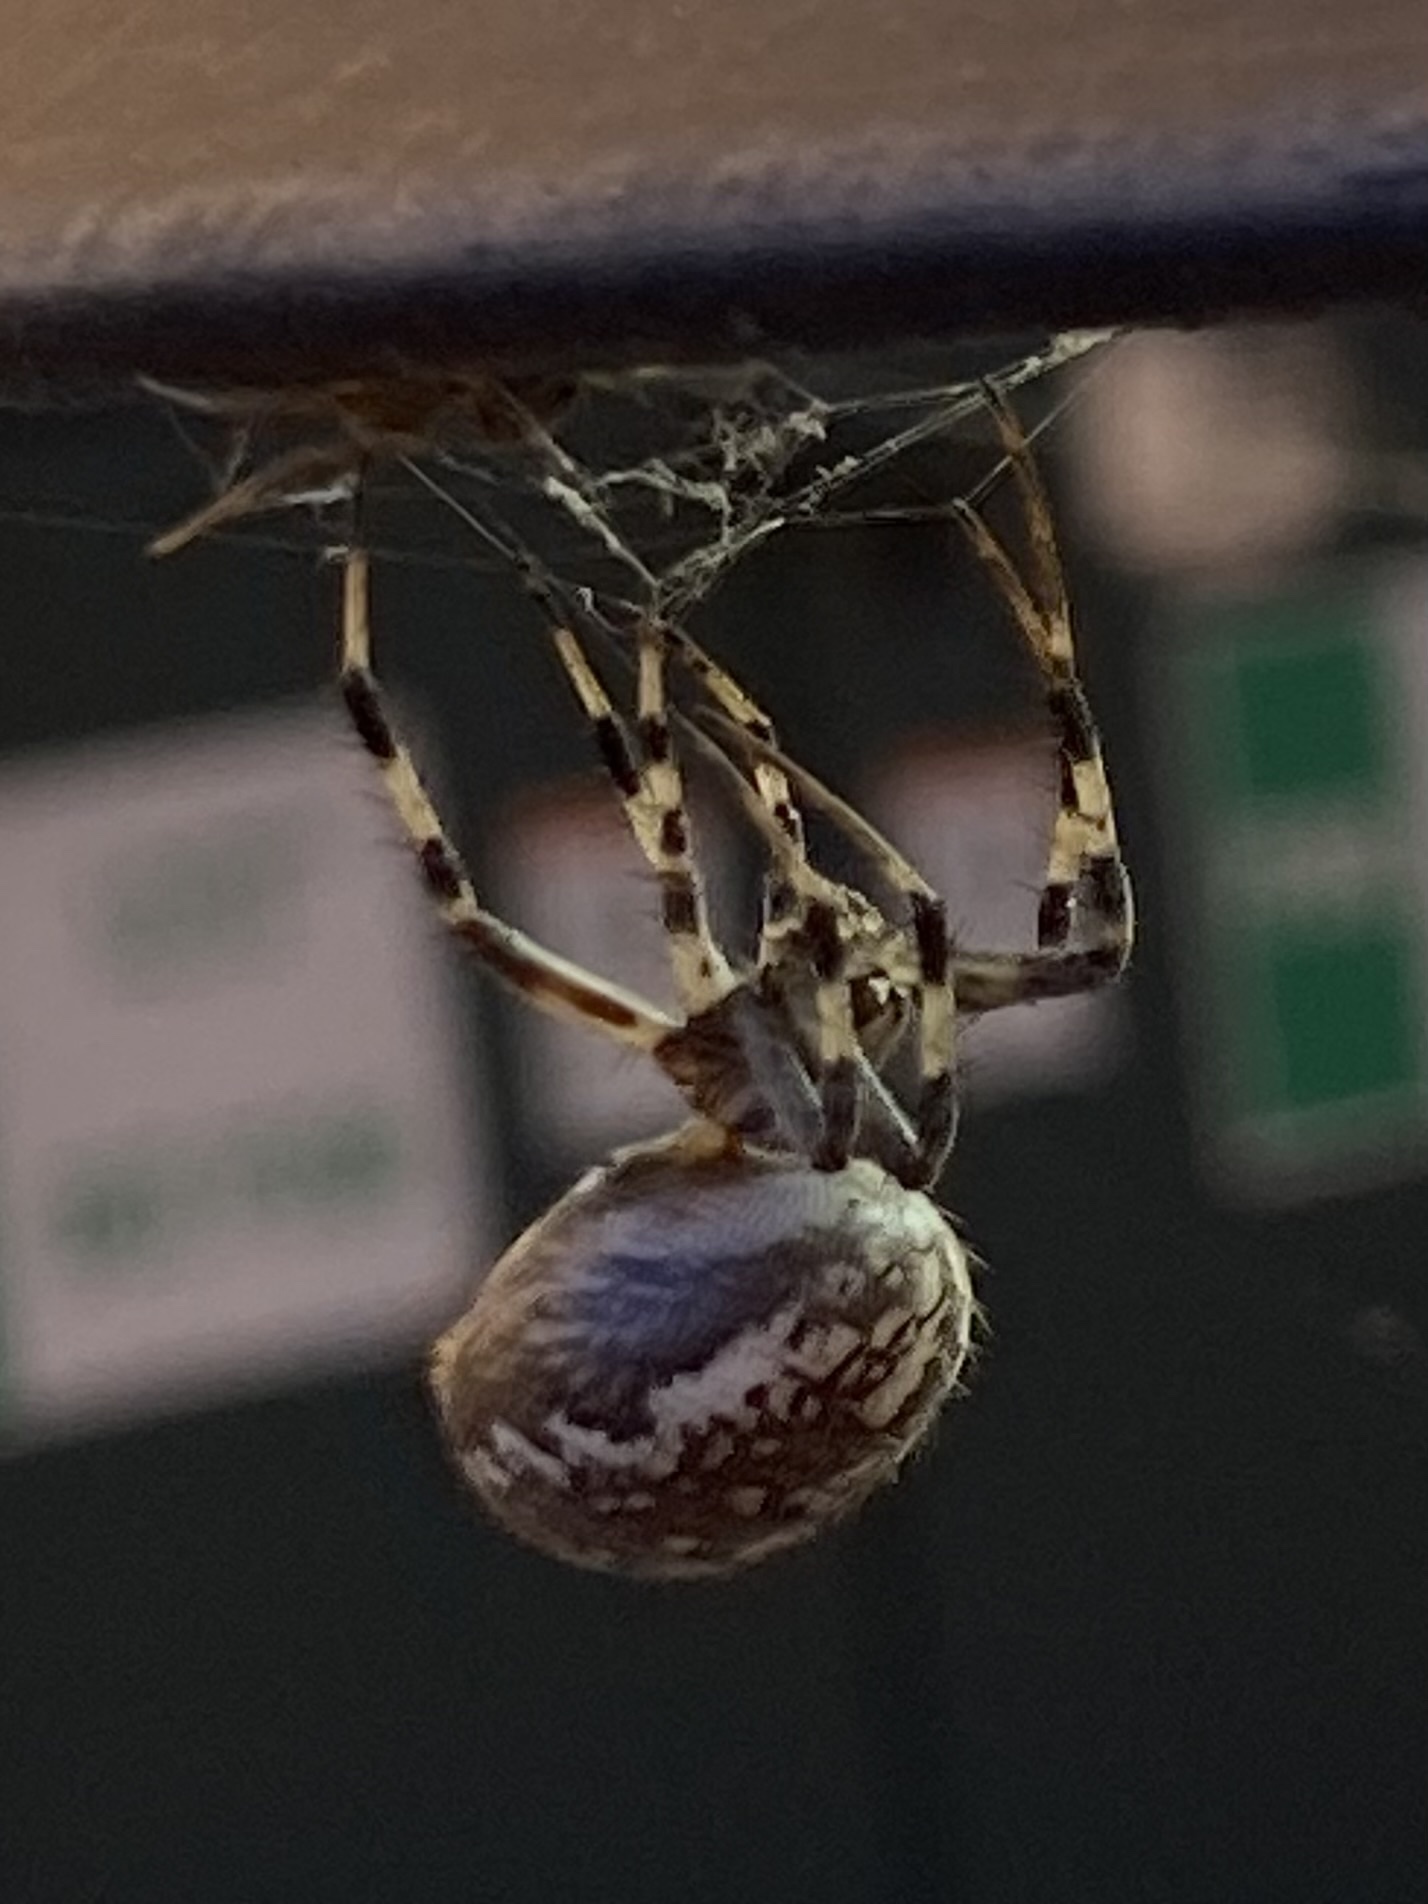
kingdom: Animalia
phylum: Arthropoda
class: Arachnida
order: Araneae
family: Araneidae
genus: Neoscona
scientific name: Neoscona oaxacensis
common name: Orb weavers
